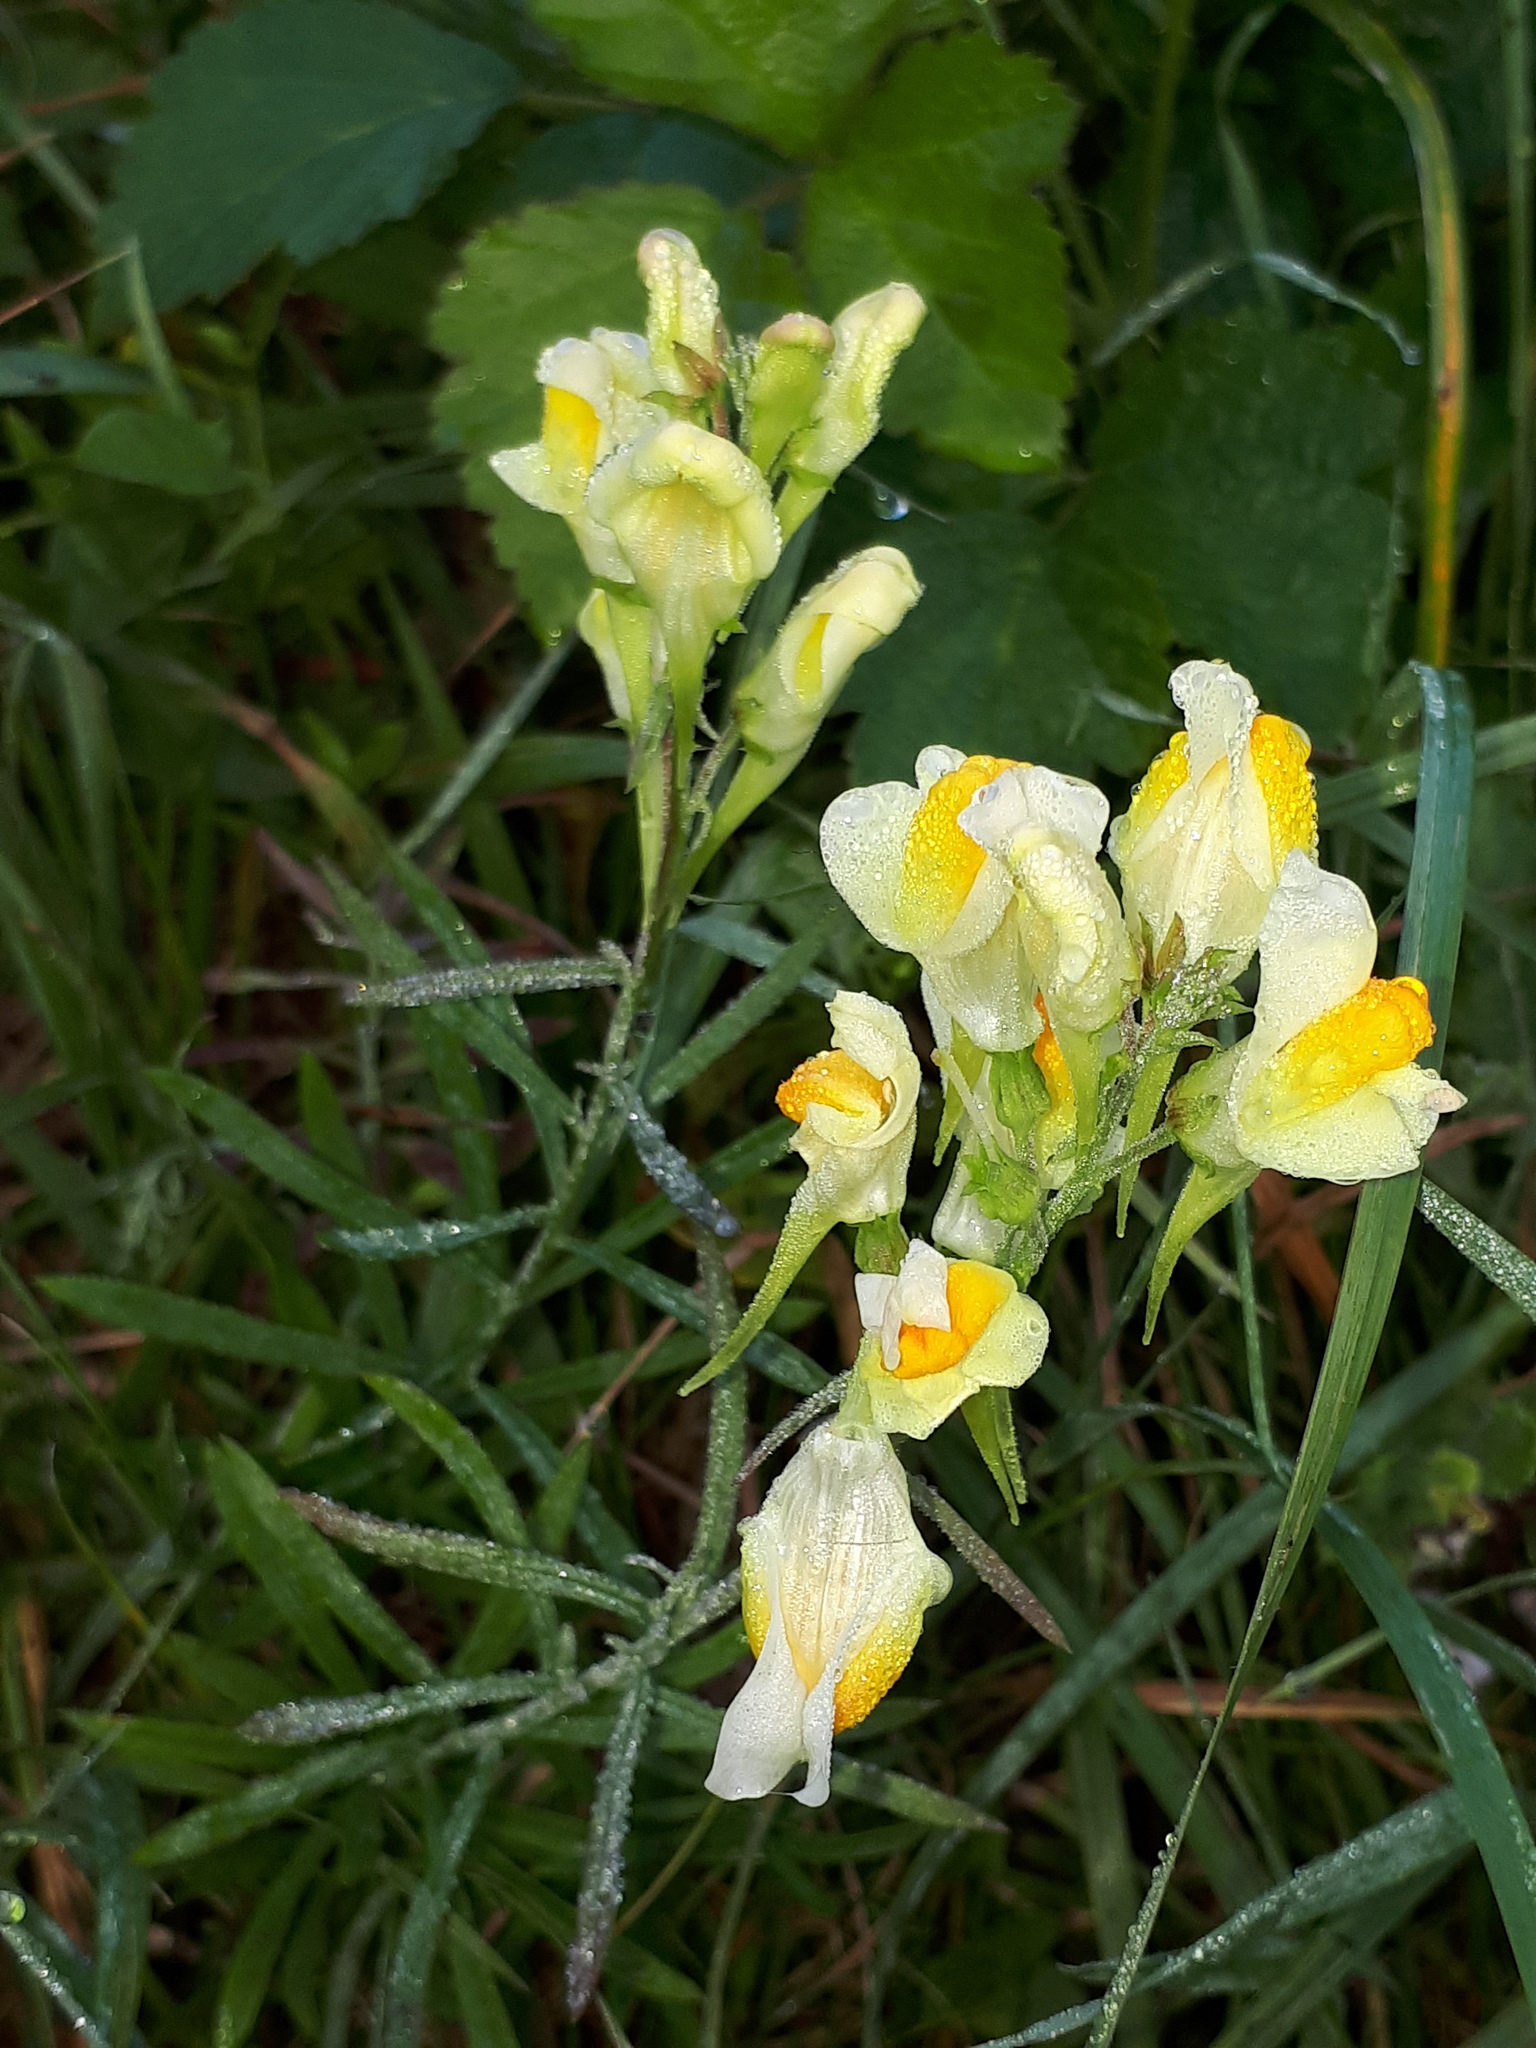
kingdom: Plantae
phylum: Tracheophyta
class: Magnoliopsida
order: Lamiales
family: Plantaginaceae
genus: Linaria
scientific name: Linaria vulgaris
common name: Butter and eggs
